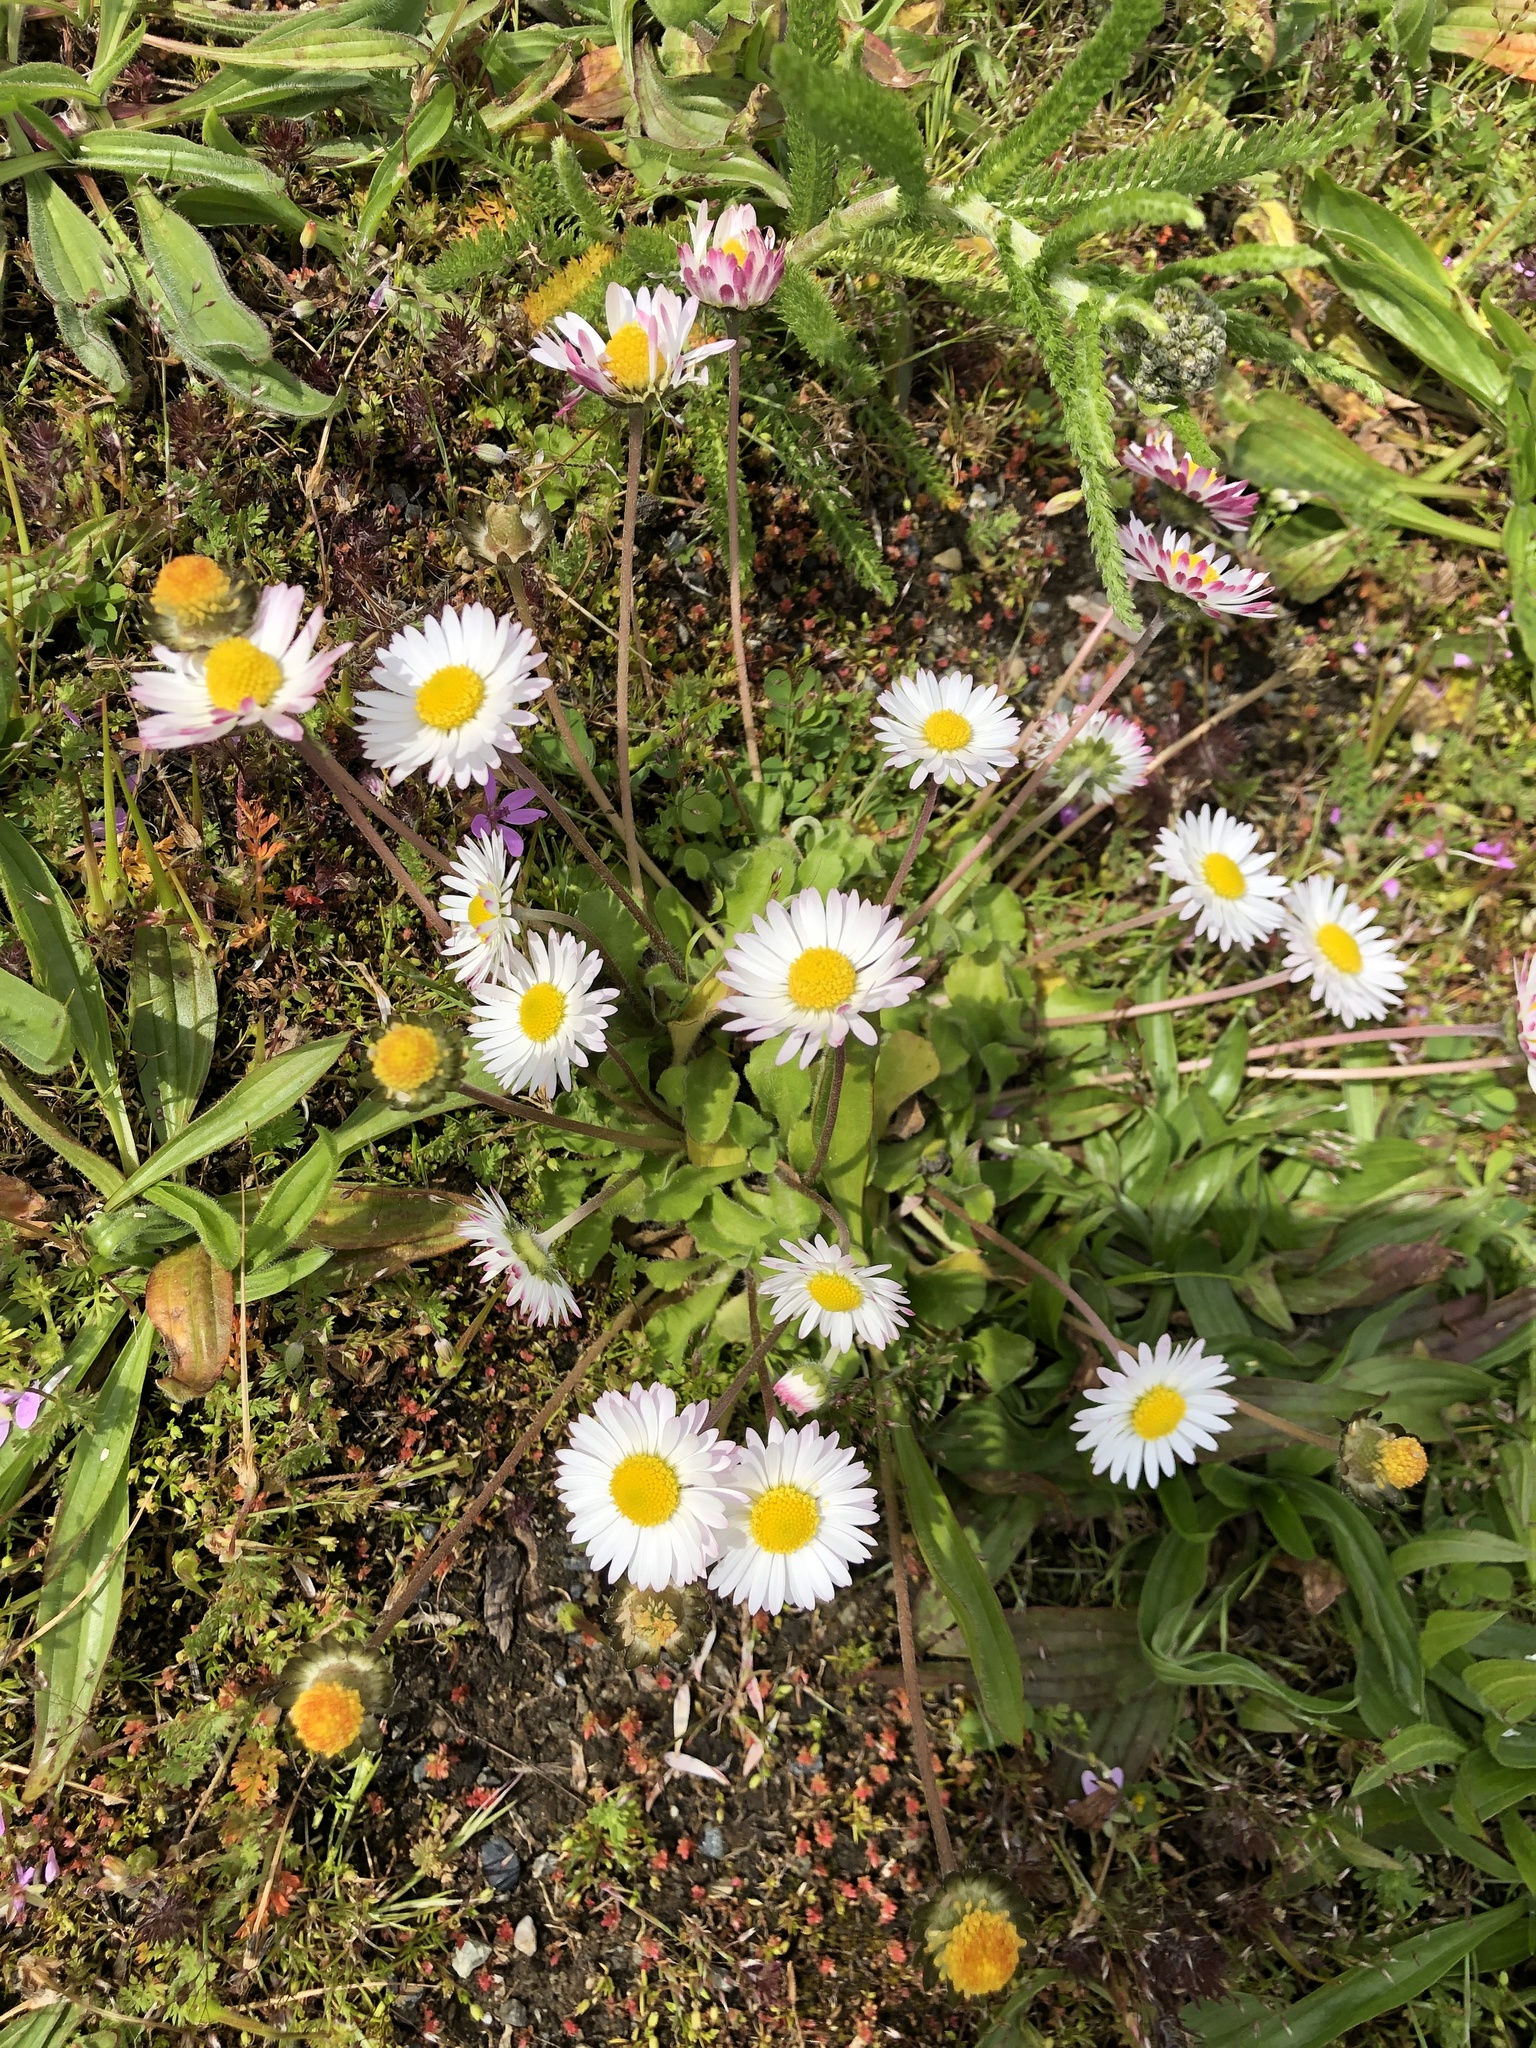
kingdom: Plantae
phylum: Tracheophyta
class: Magnoliopsida
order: Asterales
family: Asteraceae
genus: Bellis
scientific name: Bellis perennis
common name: Lawndaisy
